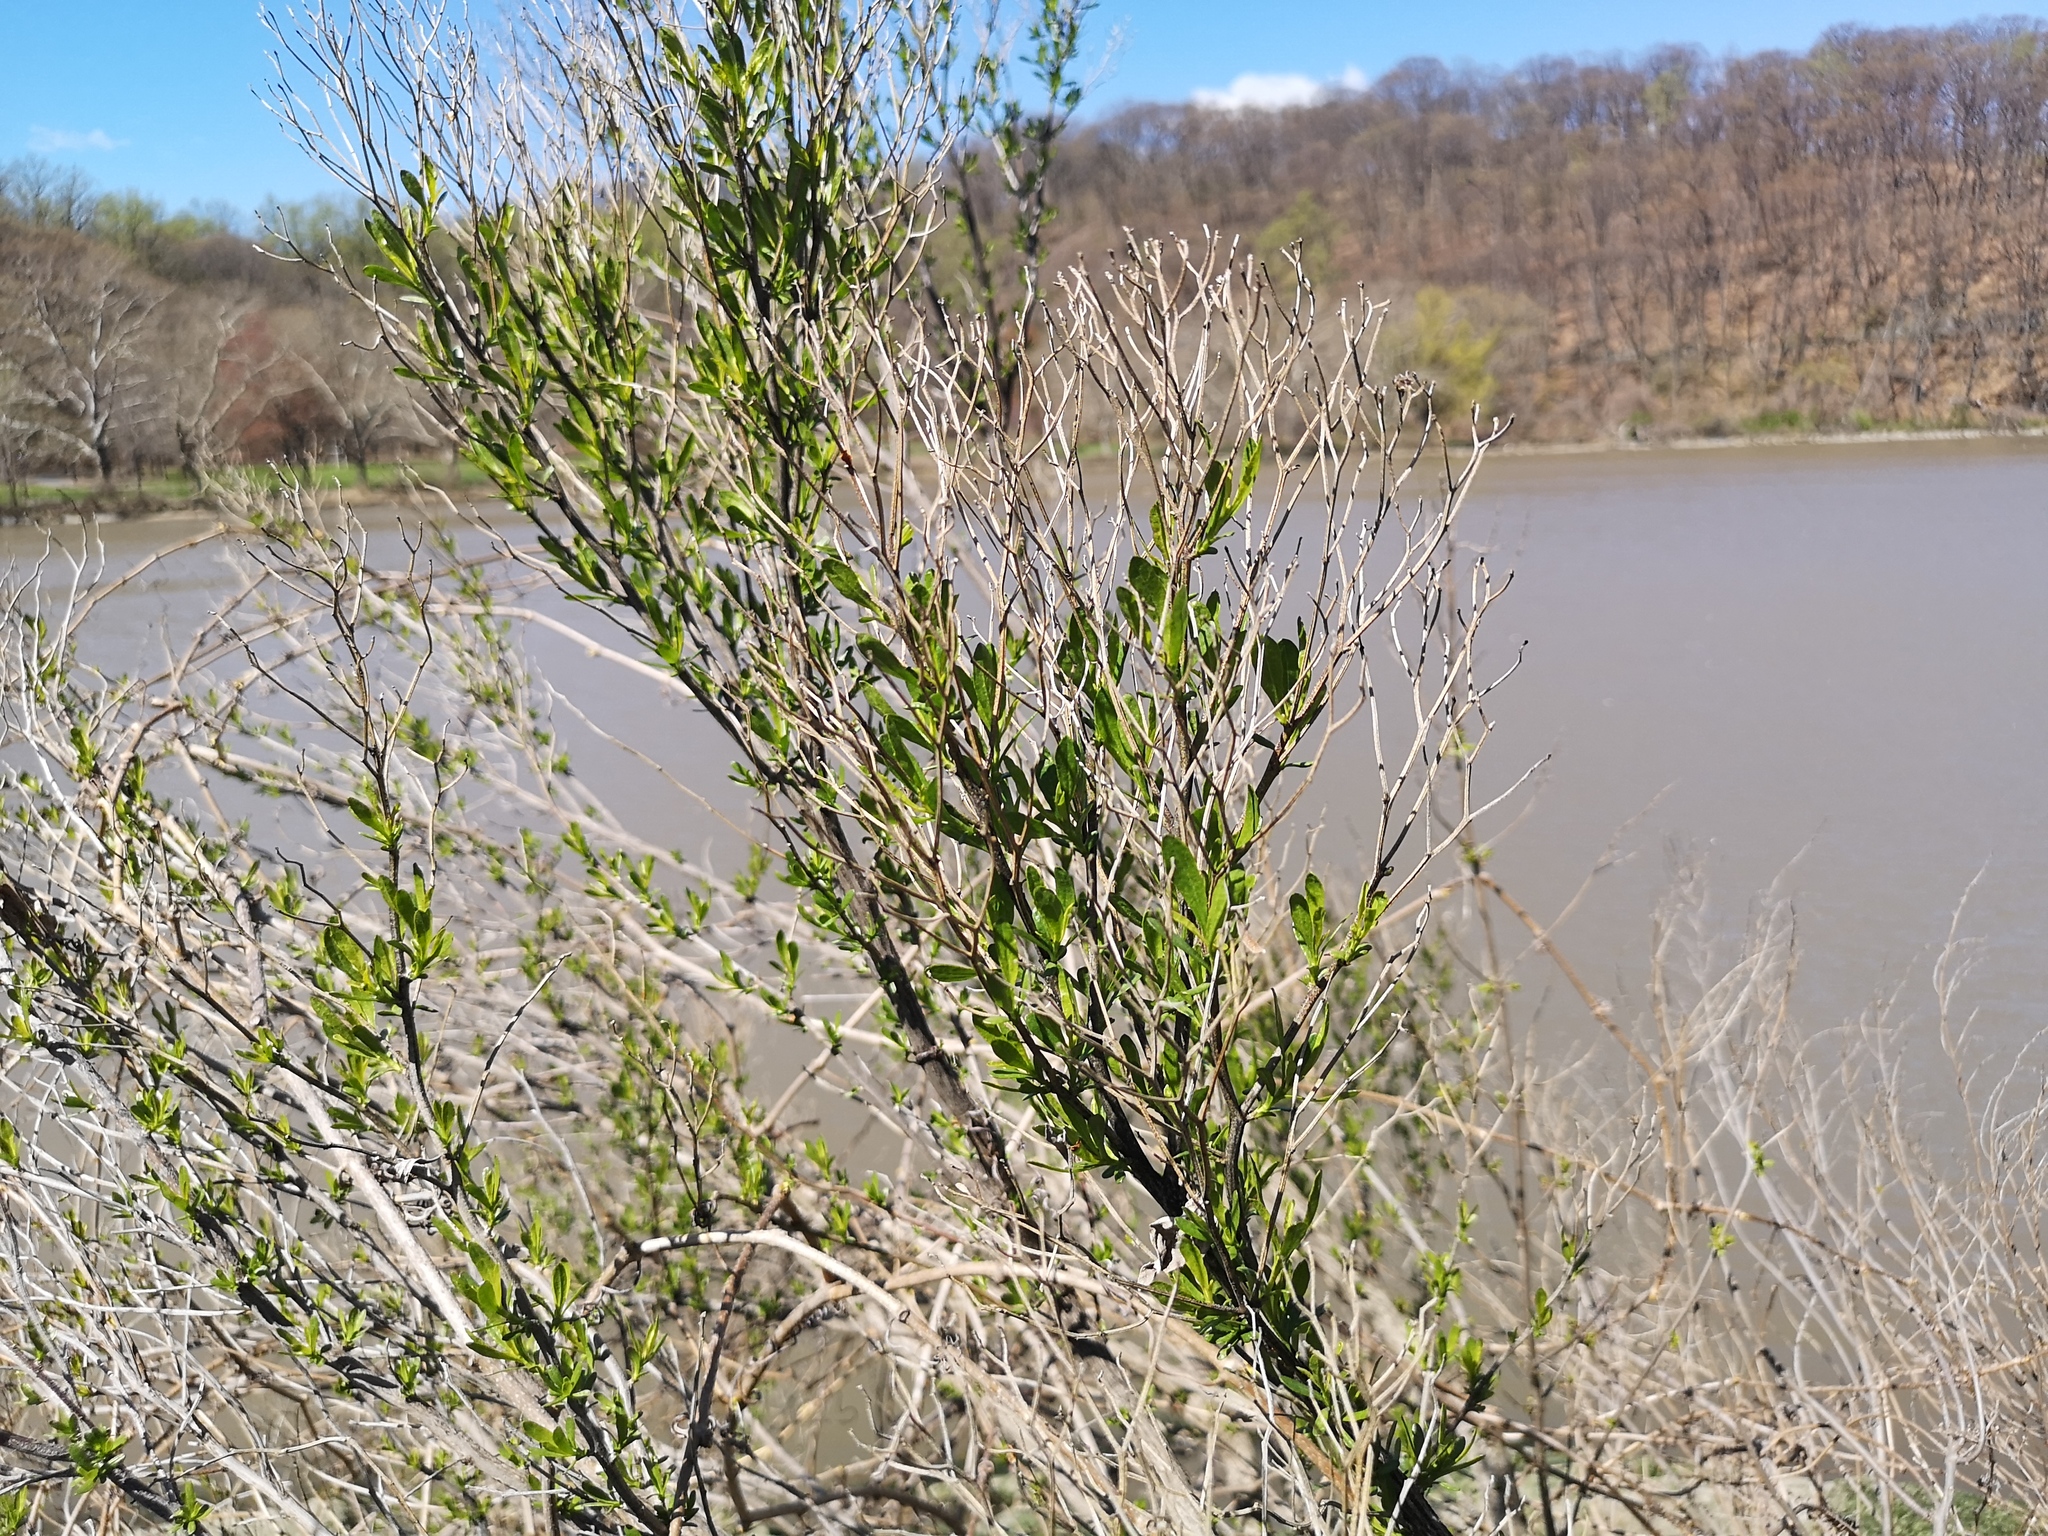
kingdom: Plantae
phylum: Tracheophyta
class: Magnoliopsida
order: Asterales
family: Asteraceae
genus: Baccharis
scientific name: Baccharis halimifolia
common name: Eastern baccharis
